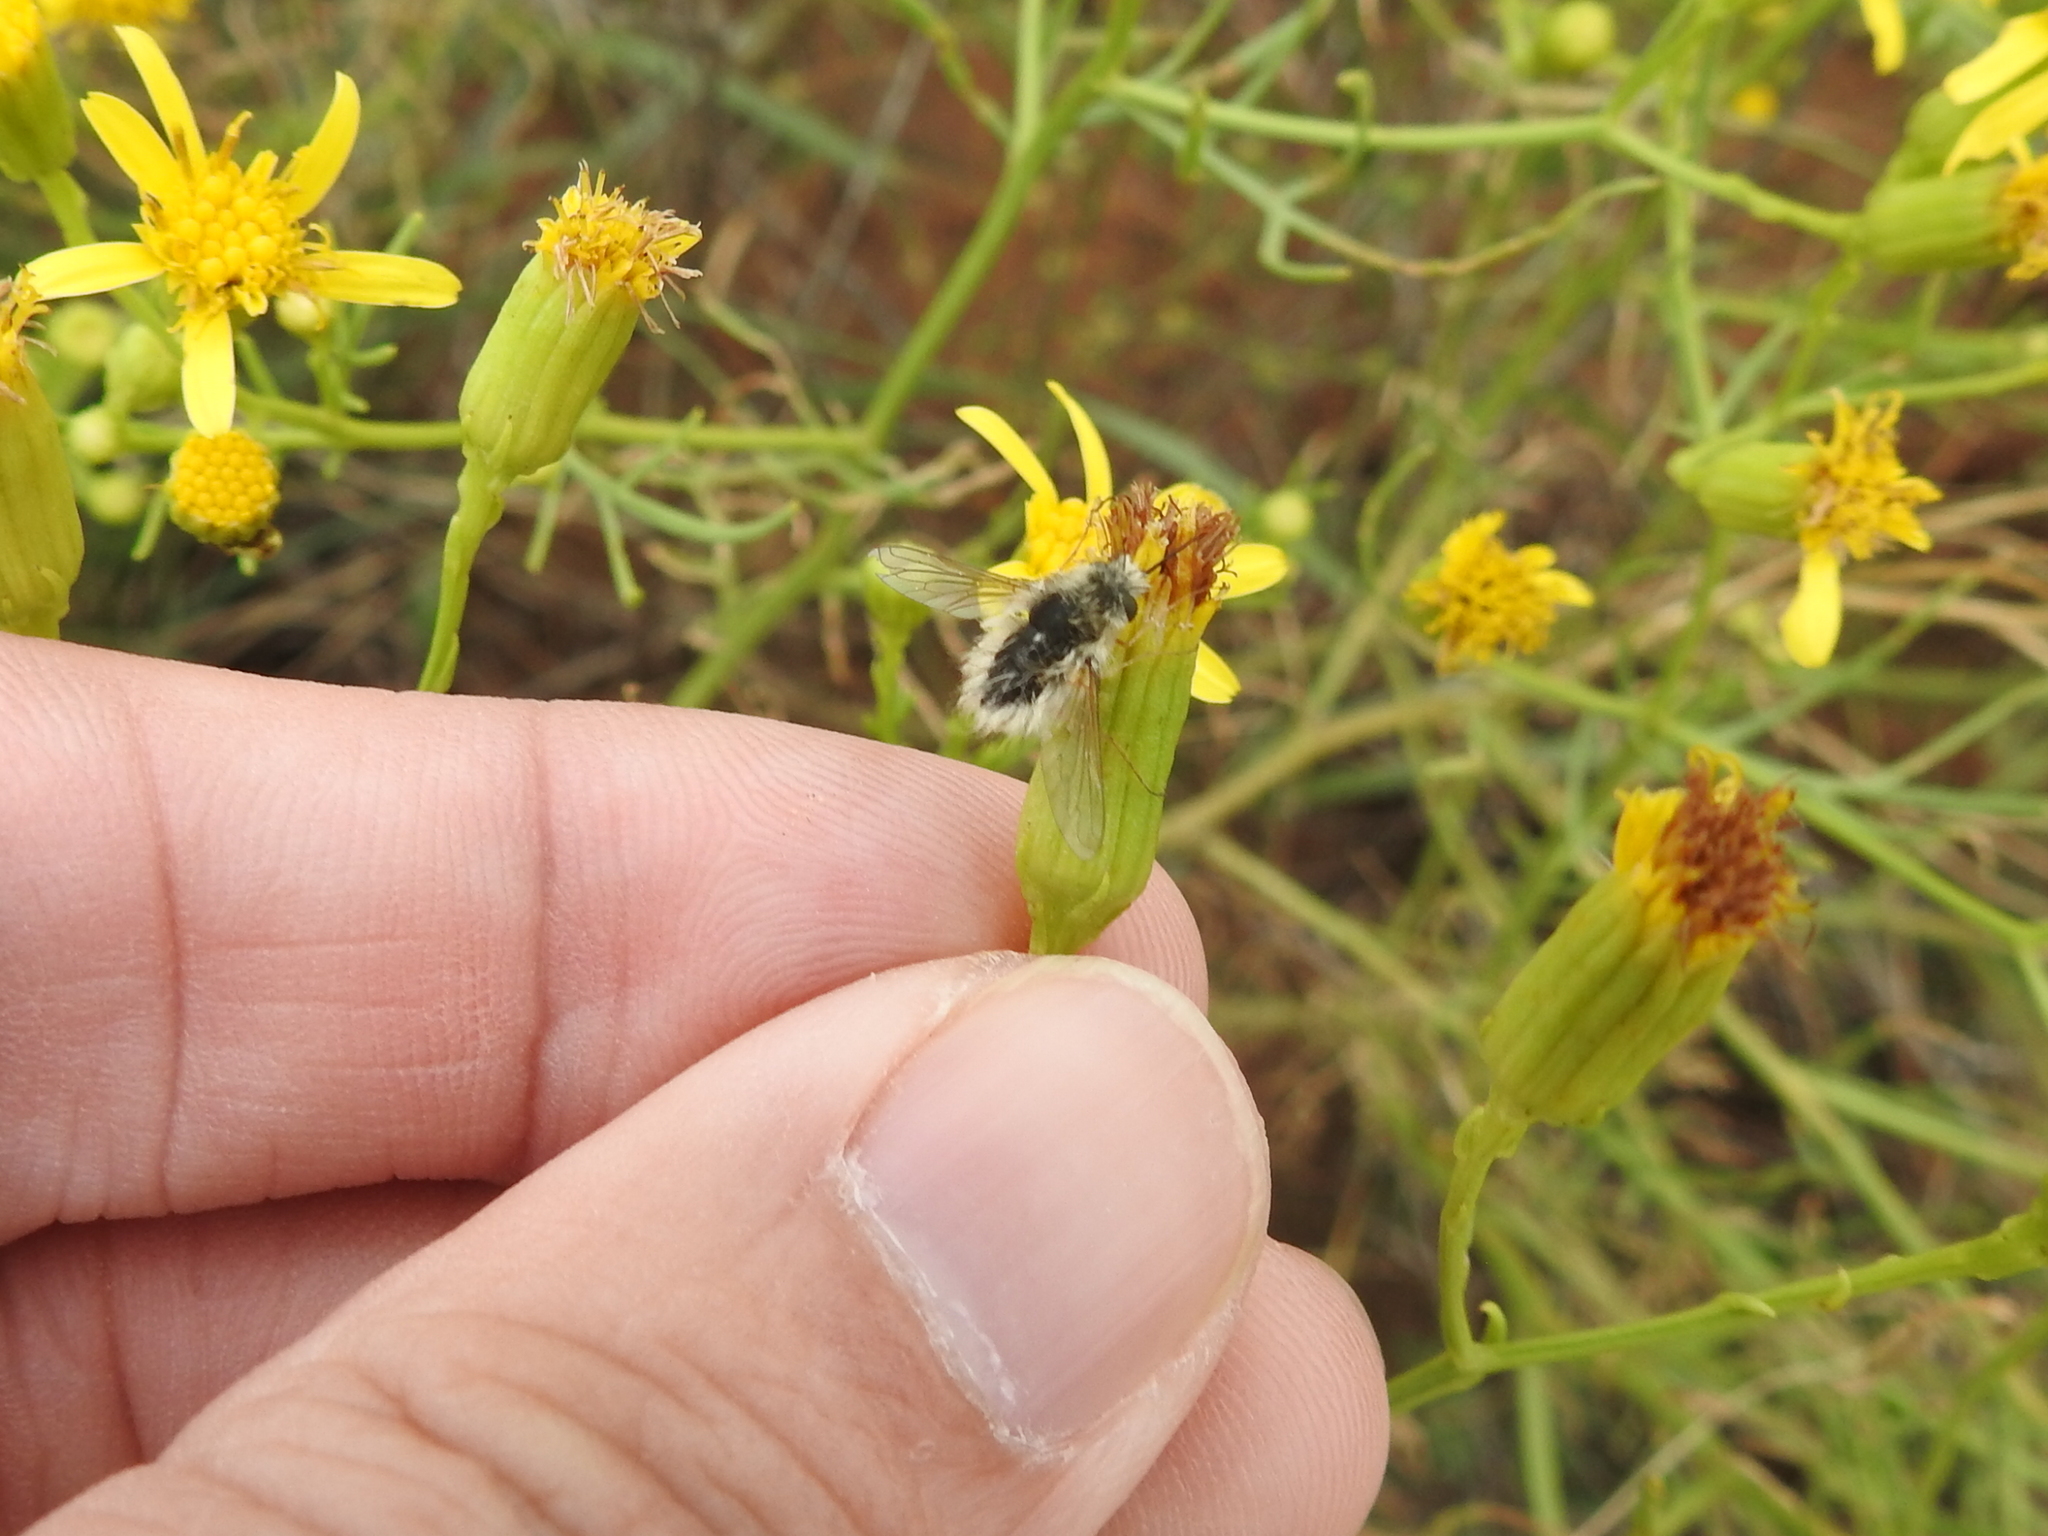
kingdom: Plantae
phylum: Tracheophyta
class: Magnoliopsida
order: Asterales
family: Asteraceae
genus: Senecio
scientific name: Senecio riddellii
